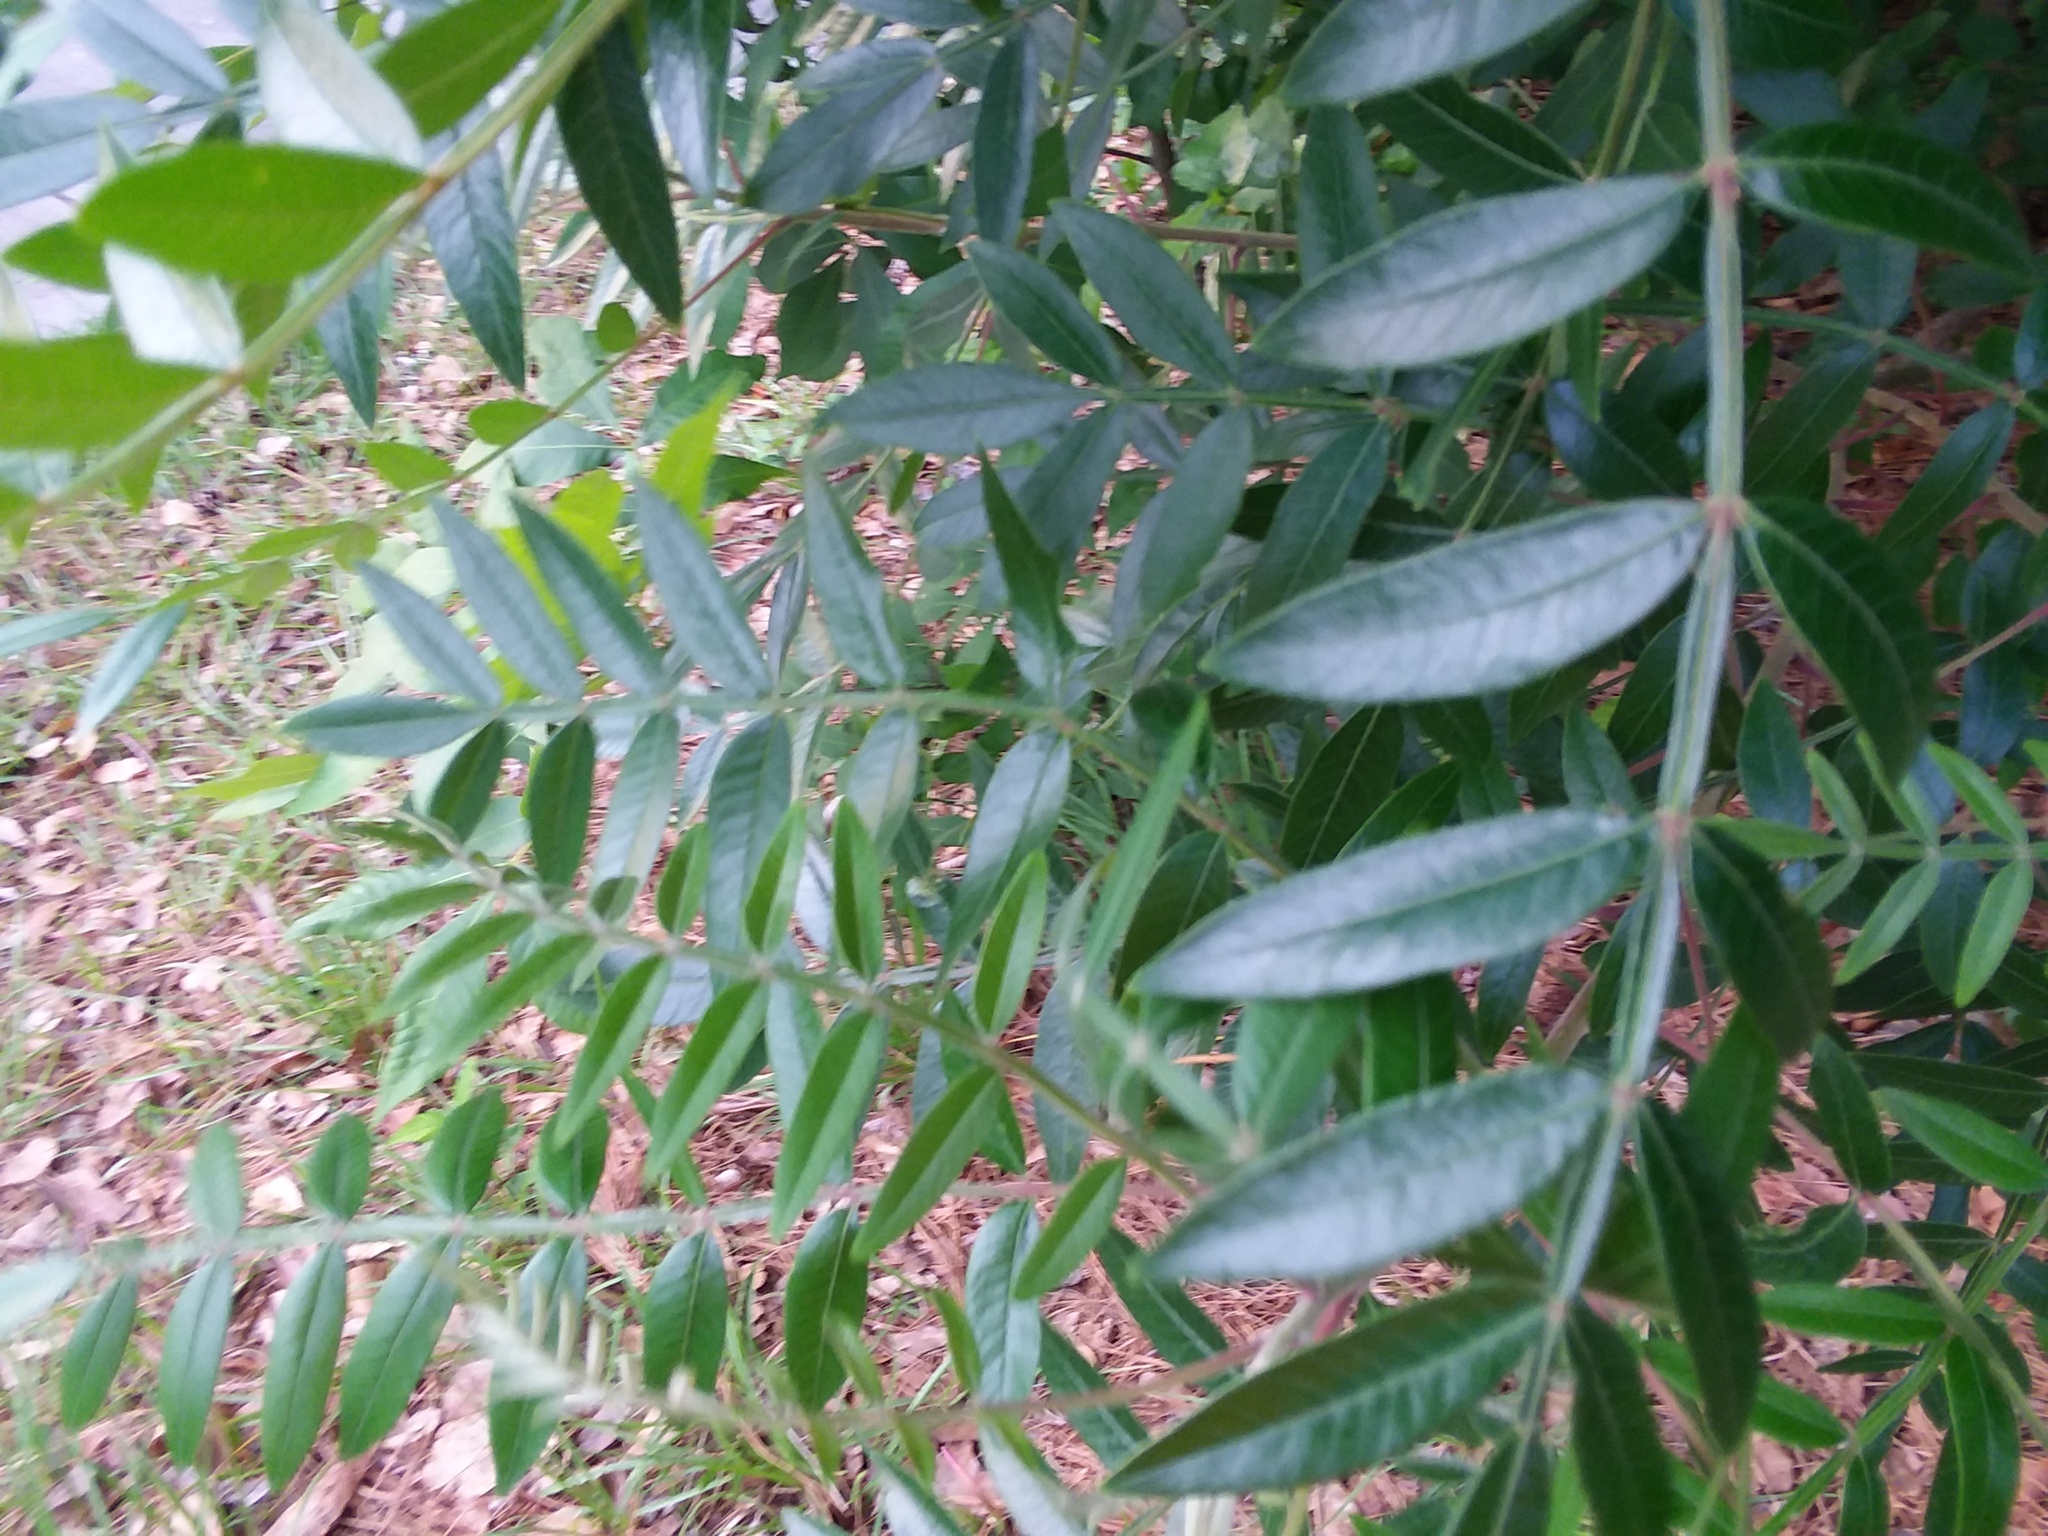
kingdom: Plantae
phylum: Tracheophyta
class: Magnoliopsida
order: Sapindales
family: Anacardiaceae
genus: Rhus
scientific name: Rhus copallina
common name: Shining sumac
